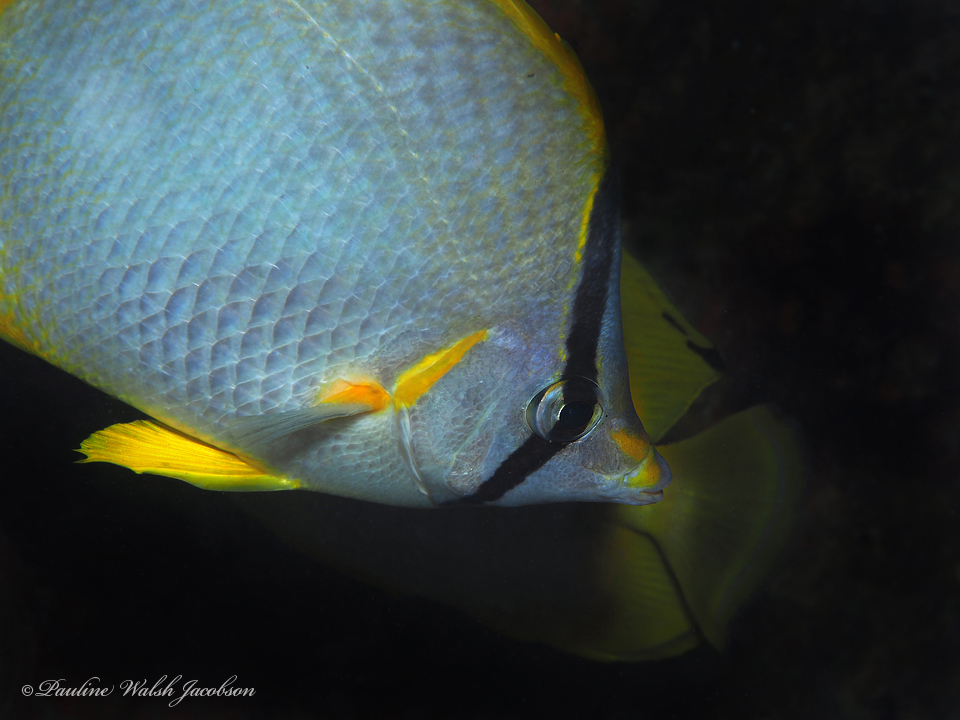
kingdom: Animalia
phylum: Chordata
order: Perciformes
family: Chaetodontidae
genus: Chaetodon
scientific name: Chaetodon ocellatus
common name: Spotfin butterflyfish
